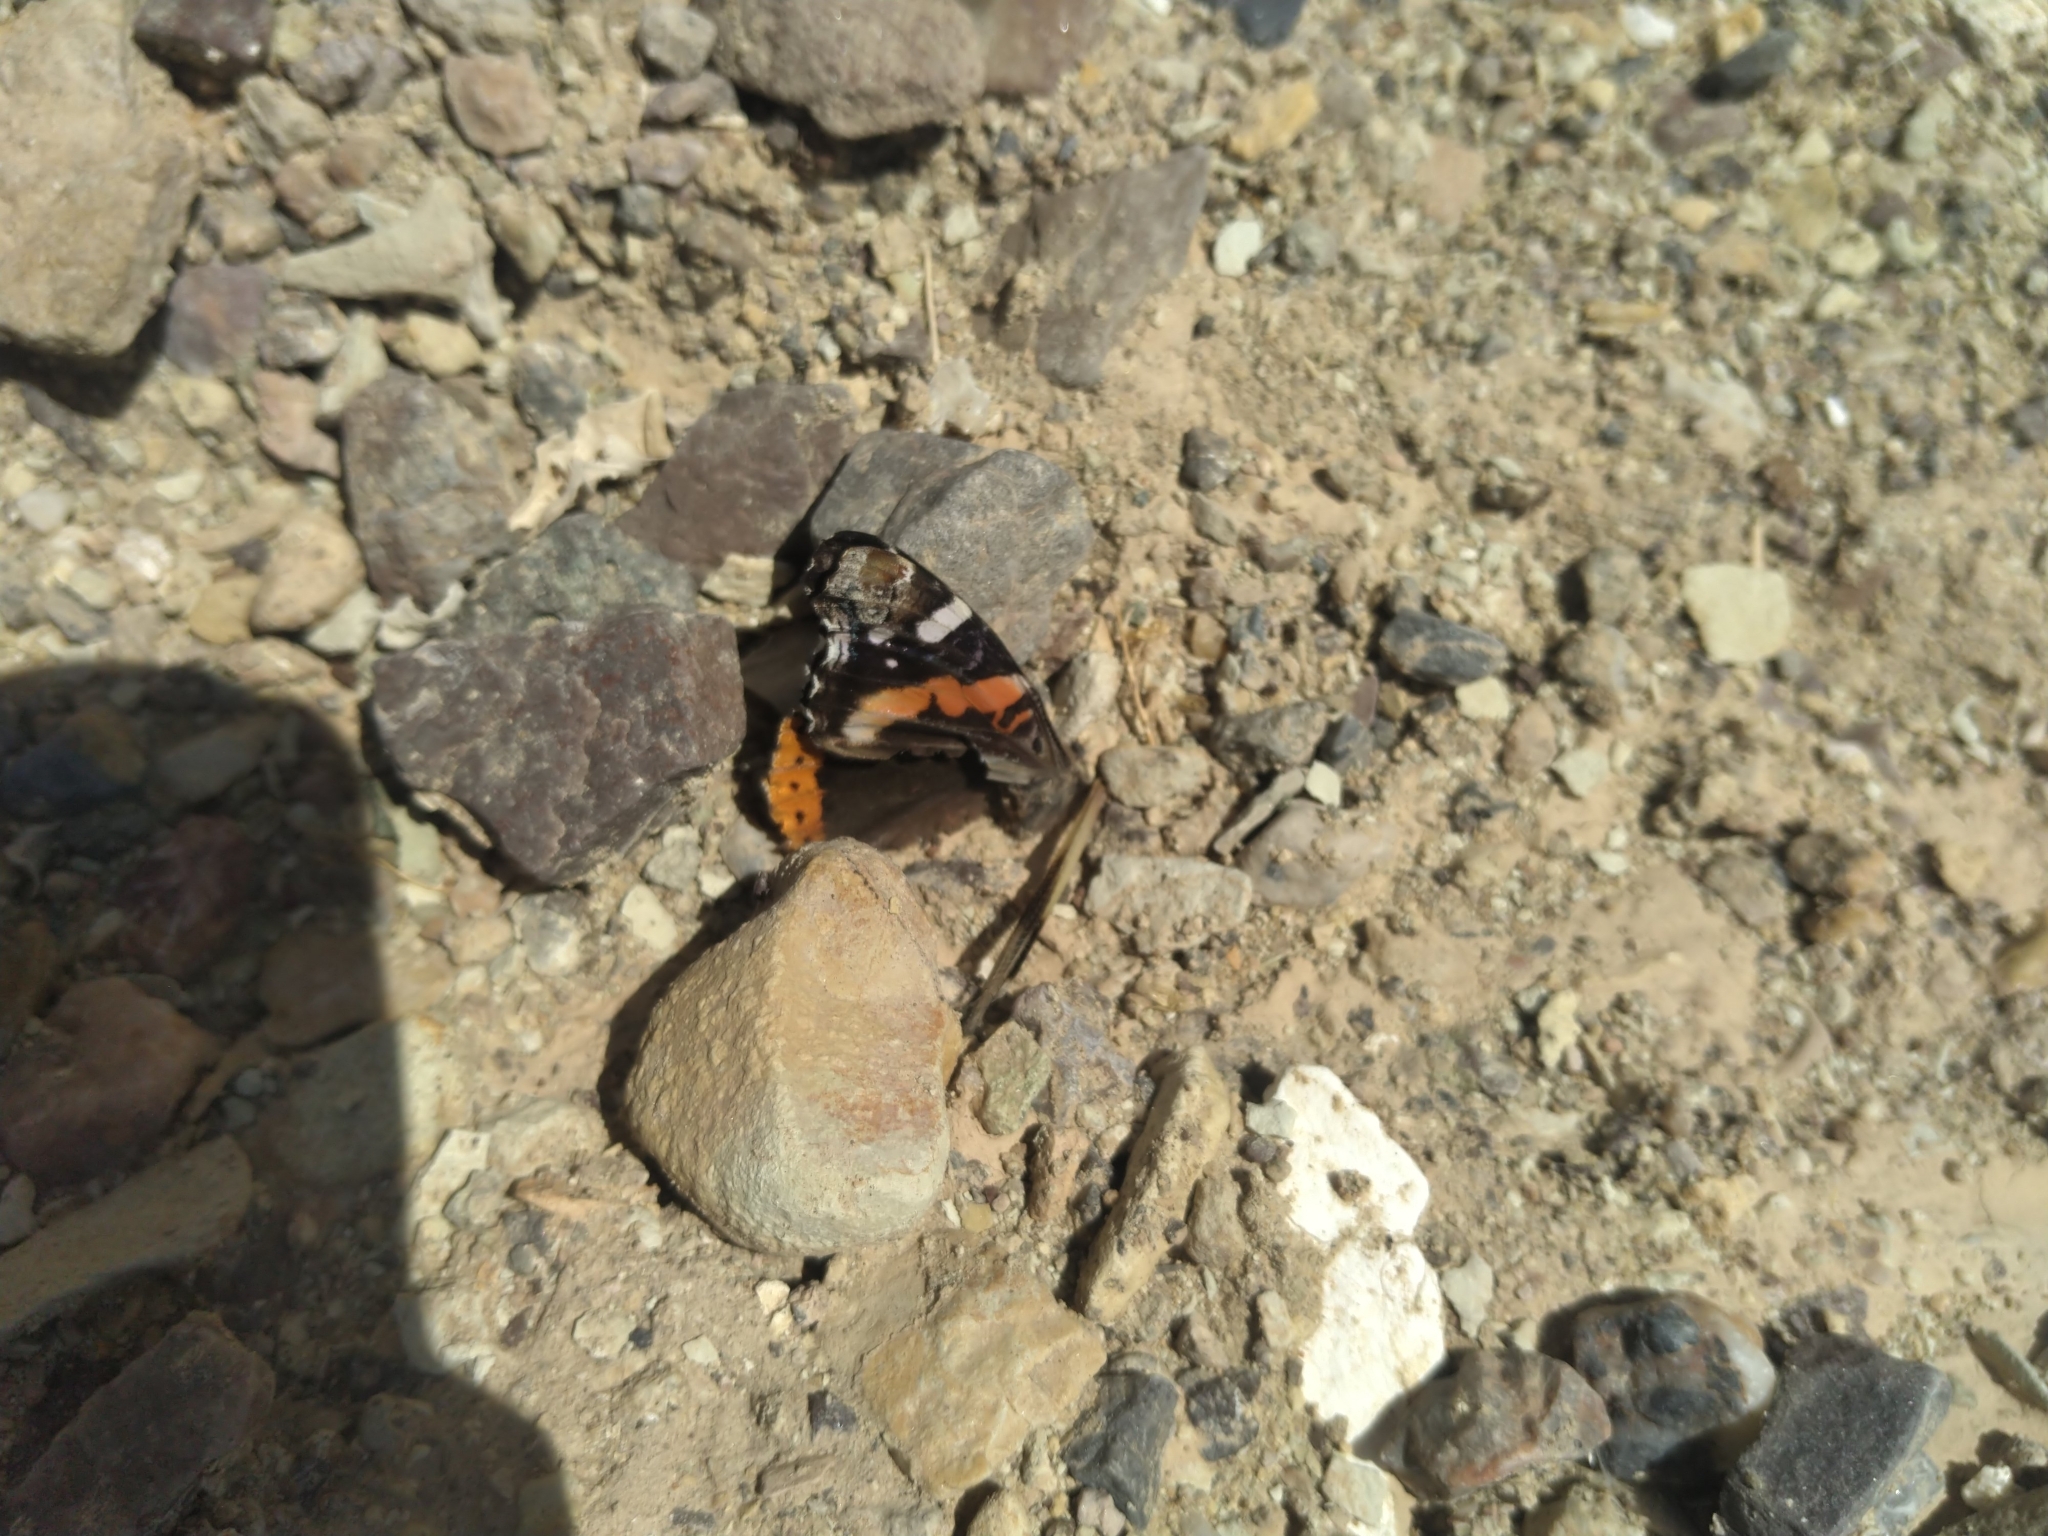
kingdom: Animalia
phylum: Arthropoda
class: Insecta
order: Lepidoptera
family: Nymphalidae
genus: Vanessa
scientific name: Vanessa atalanta
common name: Red admiral
